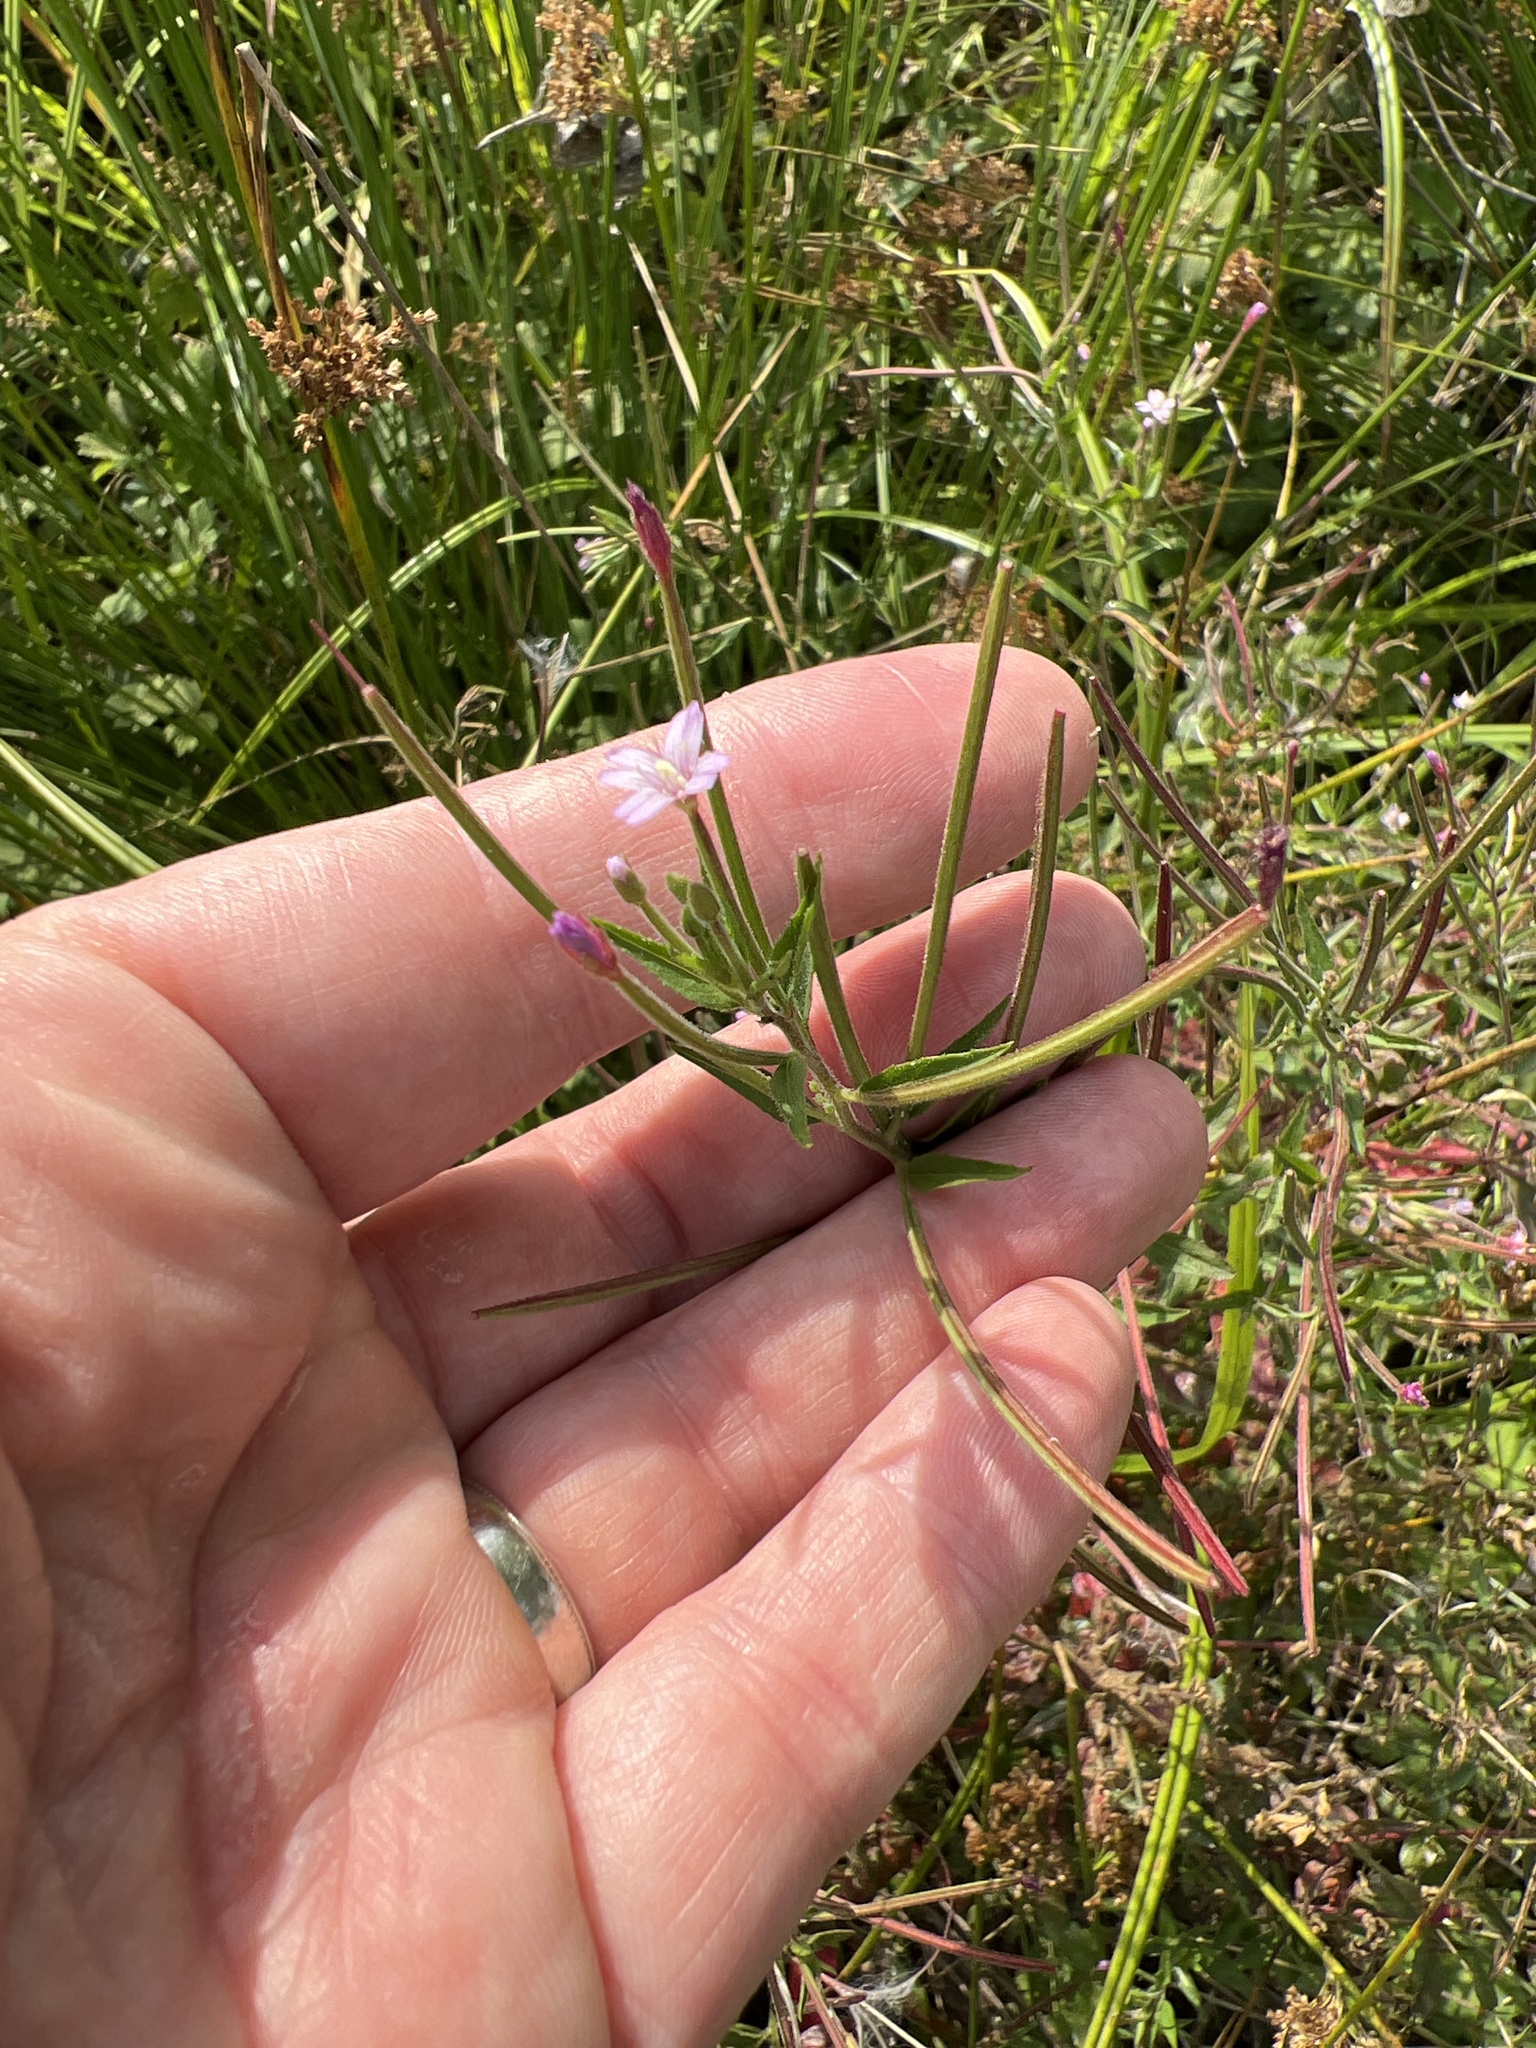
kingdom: Plantae
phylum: Tracheophyta
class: Magnoliopsida
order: Myrtales
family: Onagraceae
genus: Epilobium
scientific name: Epilobium ciliatum
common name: American willowherb
